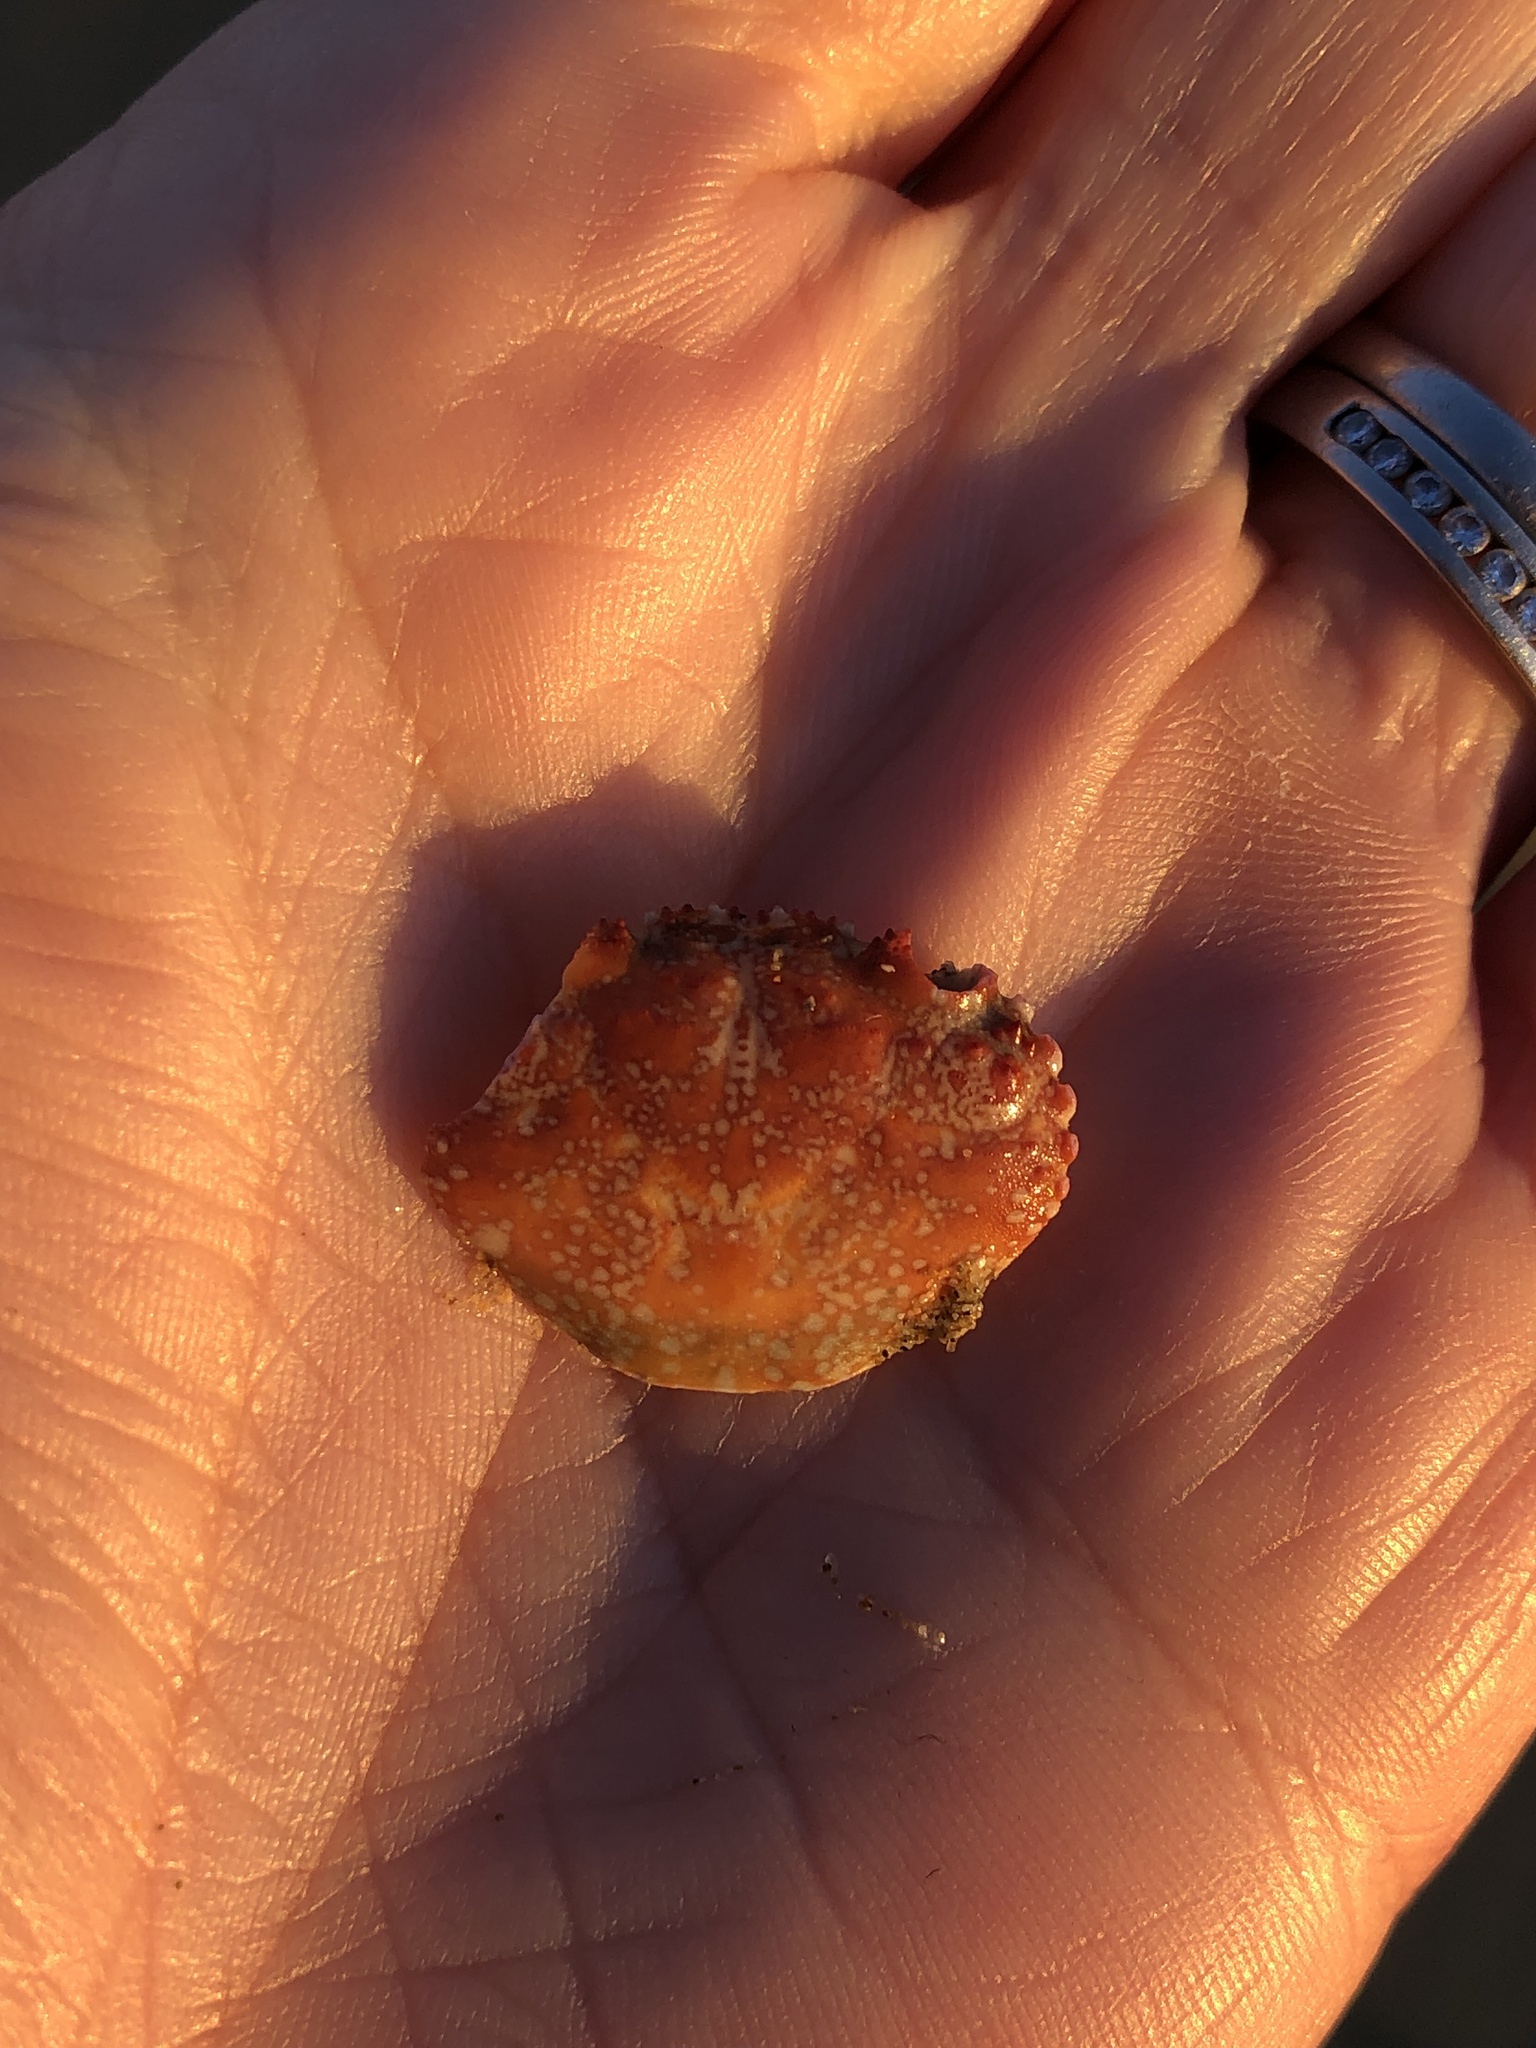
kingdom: Animalia
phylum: Arthropoda
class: Malacostraca
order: Decapoda
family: Eriphiidae
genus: Eriphia
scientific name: Eriphia verrucosa
